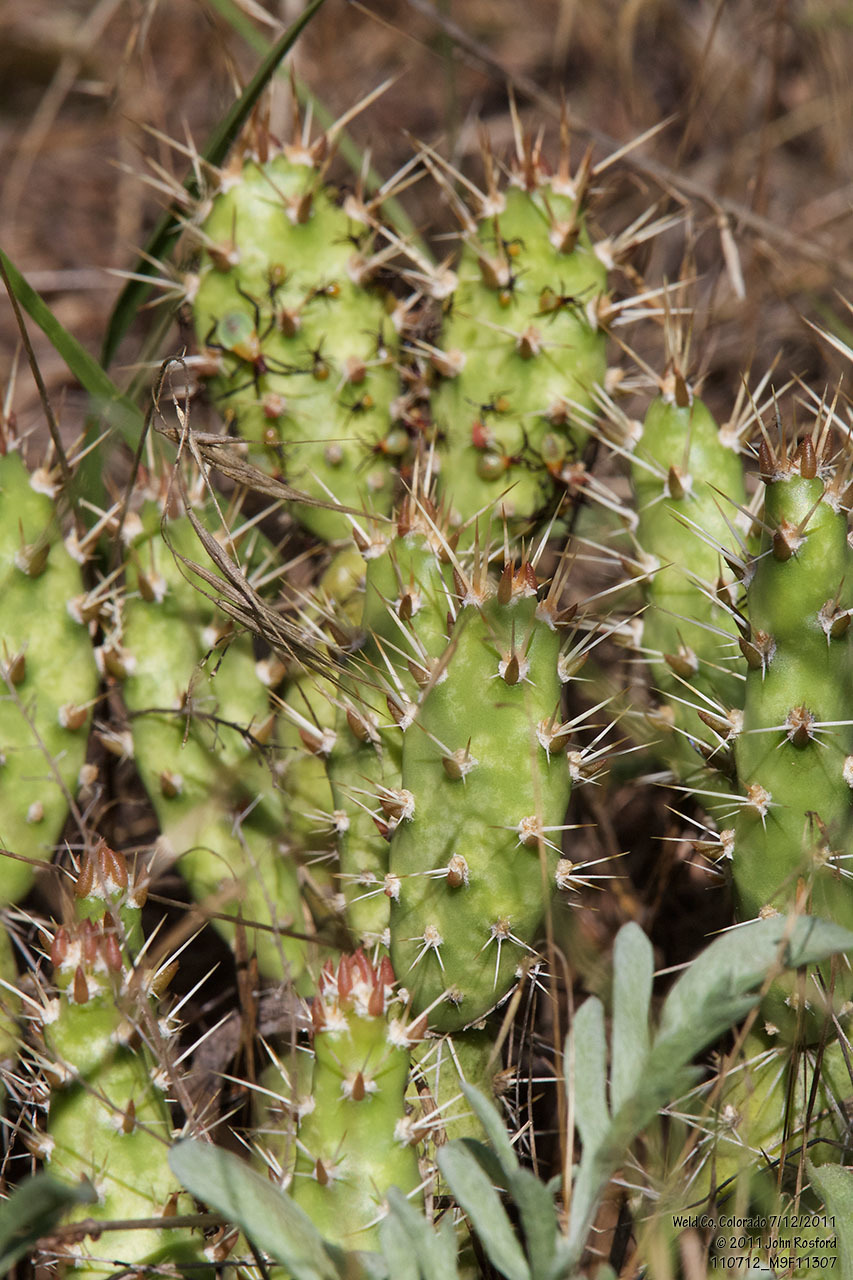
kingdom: Plantae
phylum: Tracheophyta
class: Magnoliopsida
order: Caryophyllales
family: Cactaceae
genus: Opuntia
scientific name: Opuntia fragilis
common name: Brittle cactus
